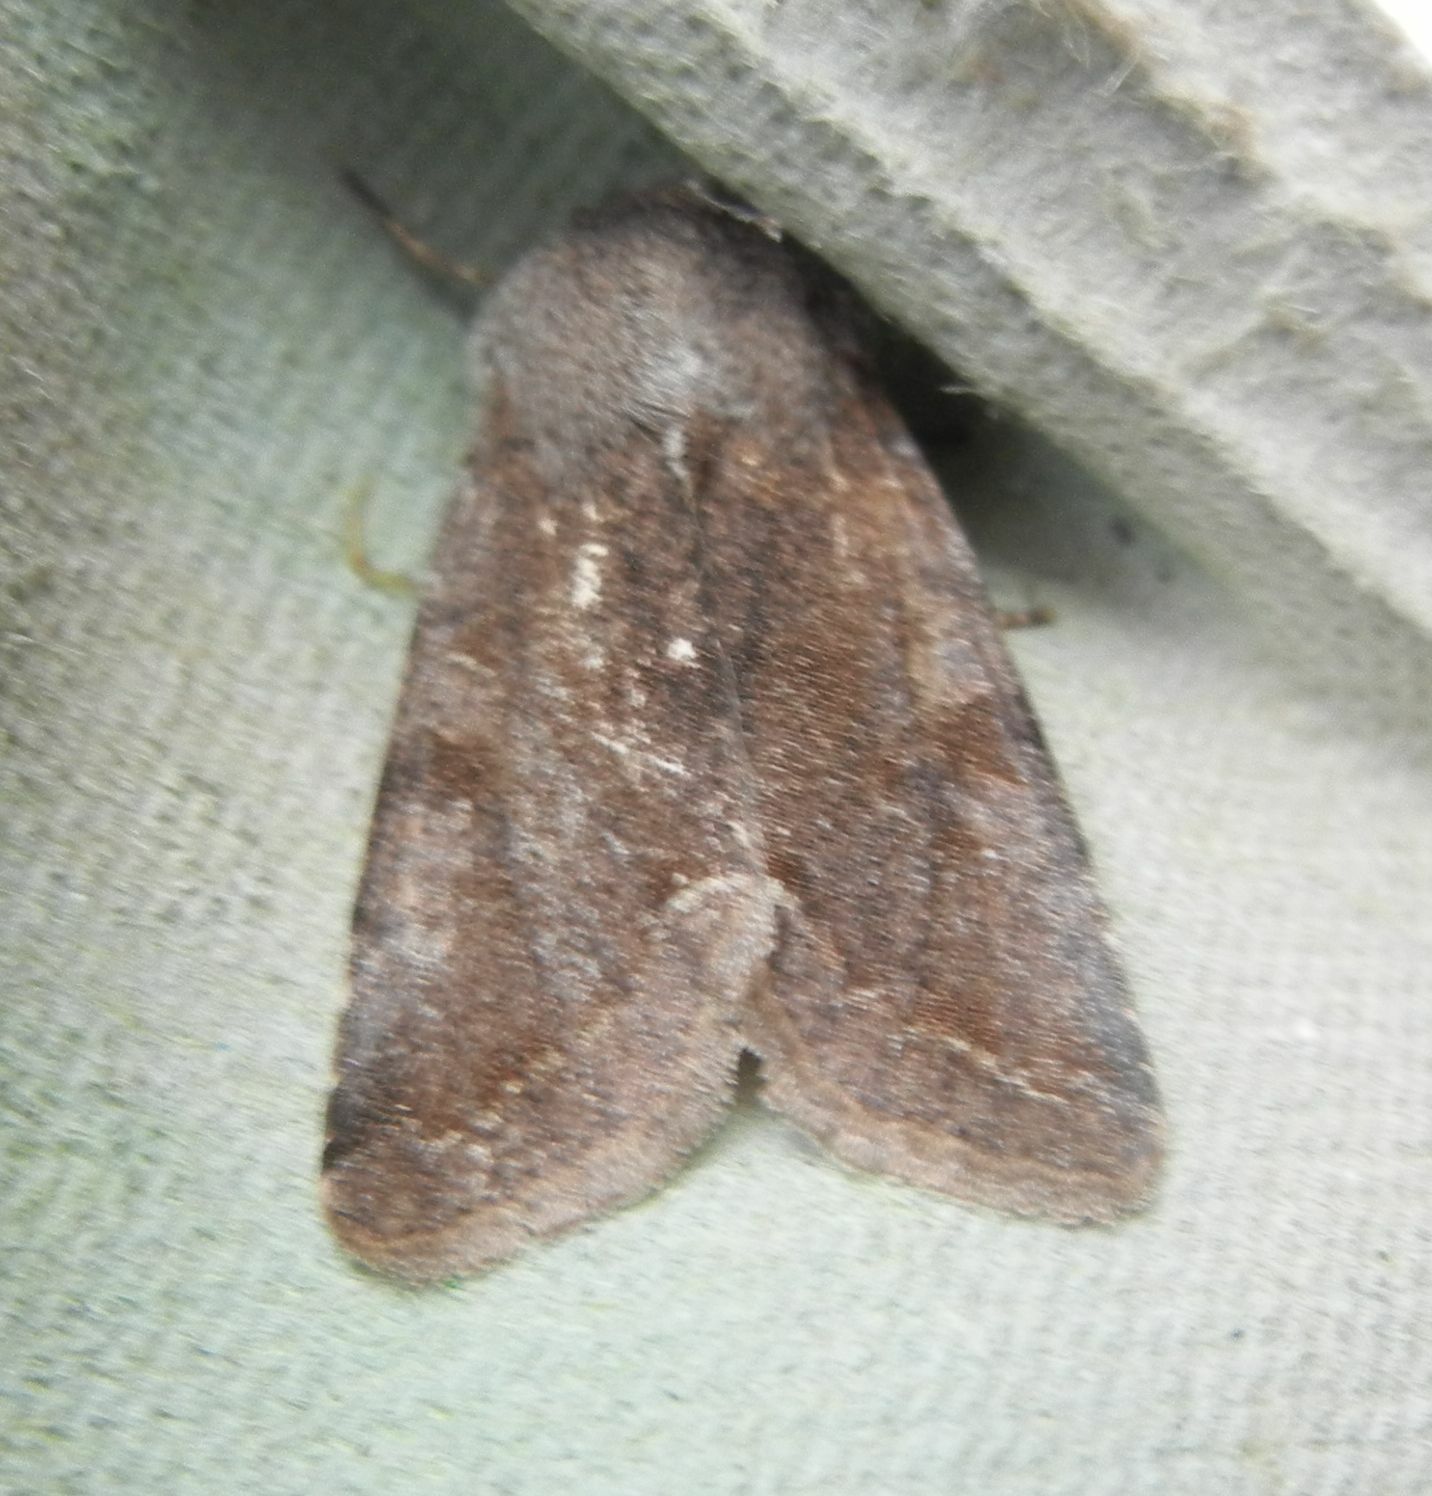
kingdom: Animalia
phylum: Arthropoda
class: Insecta
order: Lepidoptera
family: Noctuidae
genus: Orthosia
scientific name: Orthosia incerta
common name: Clouded drab
